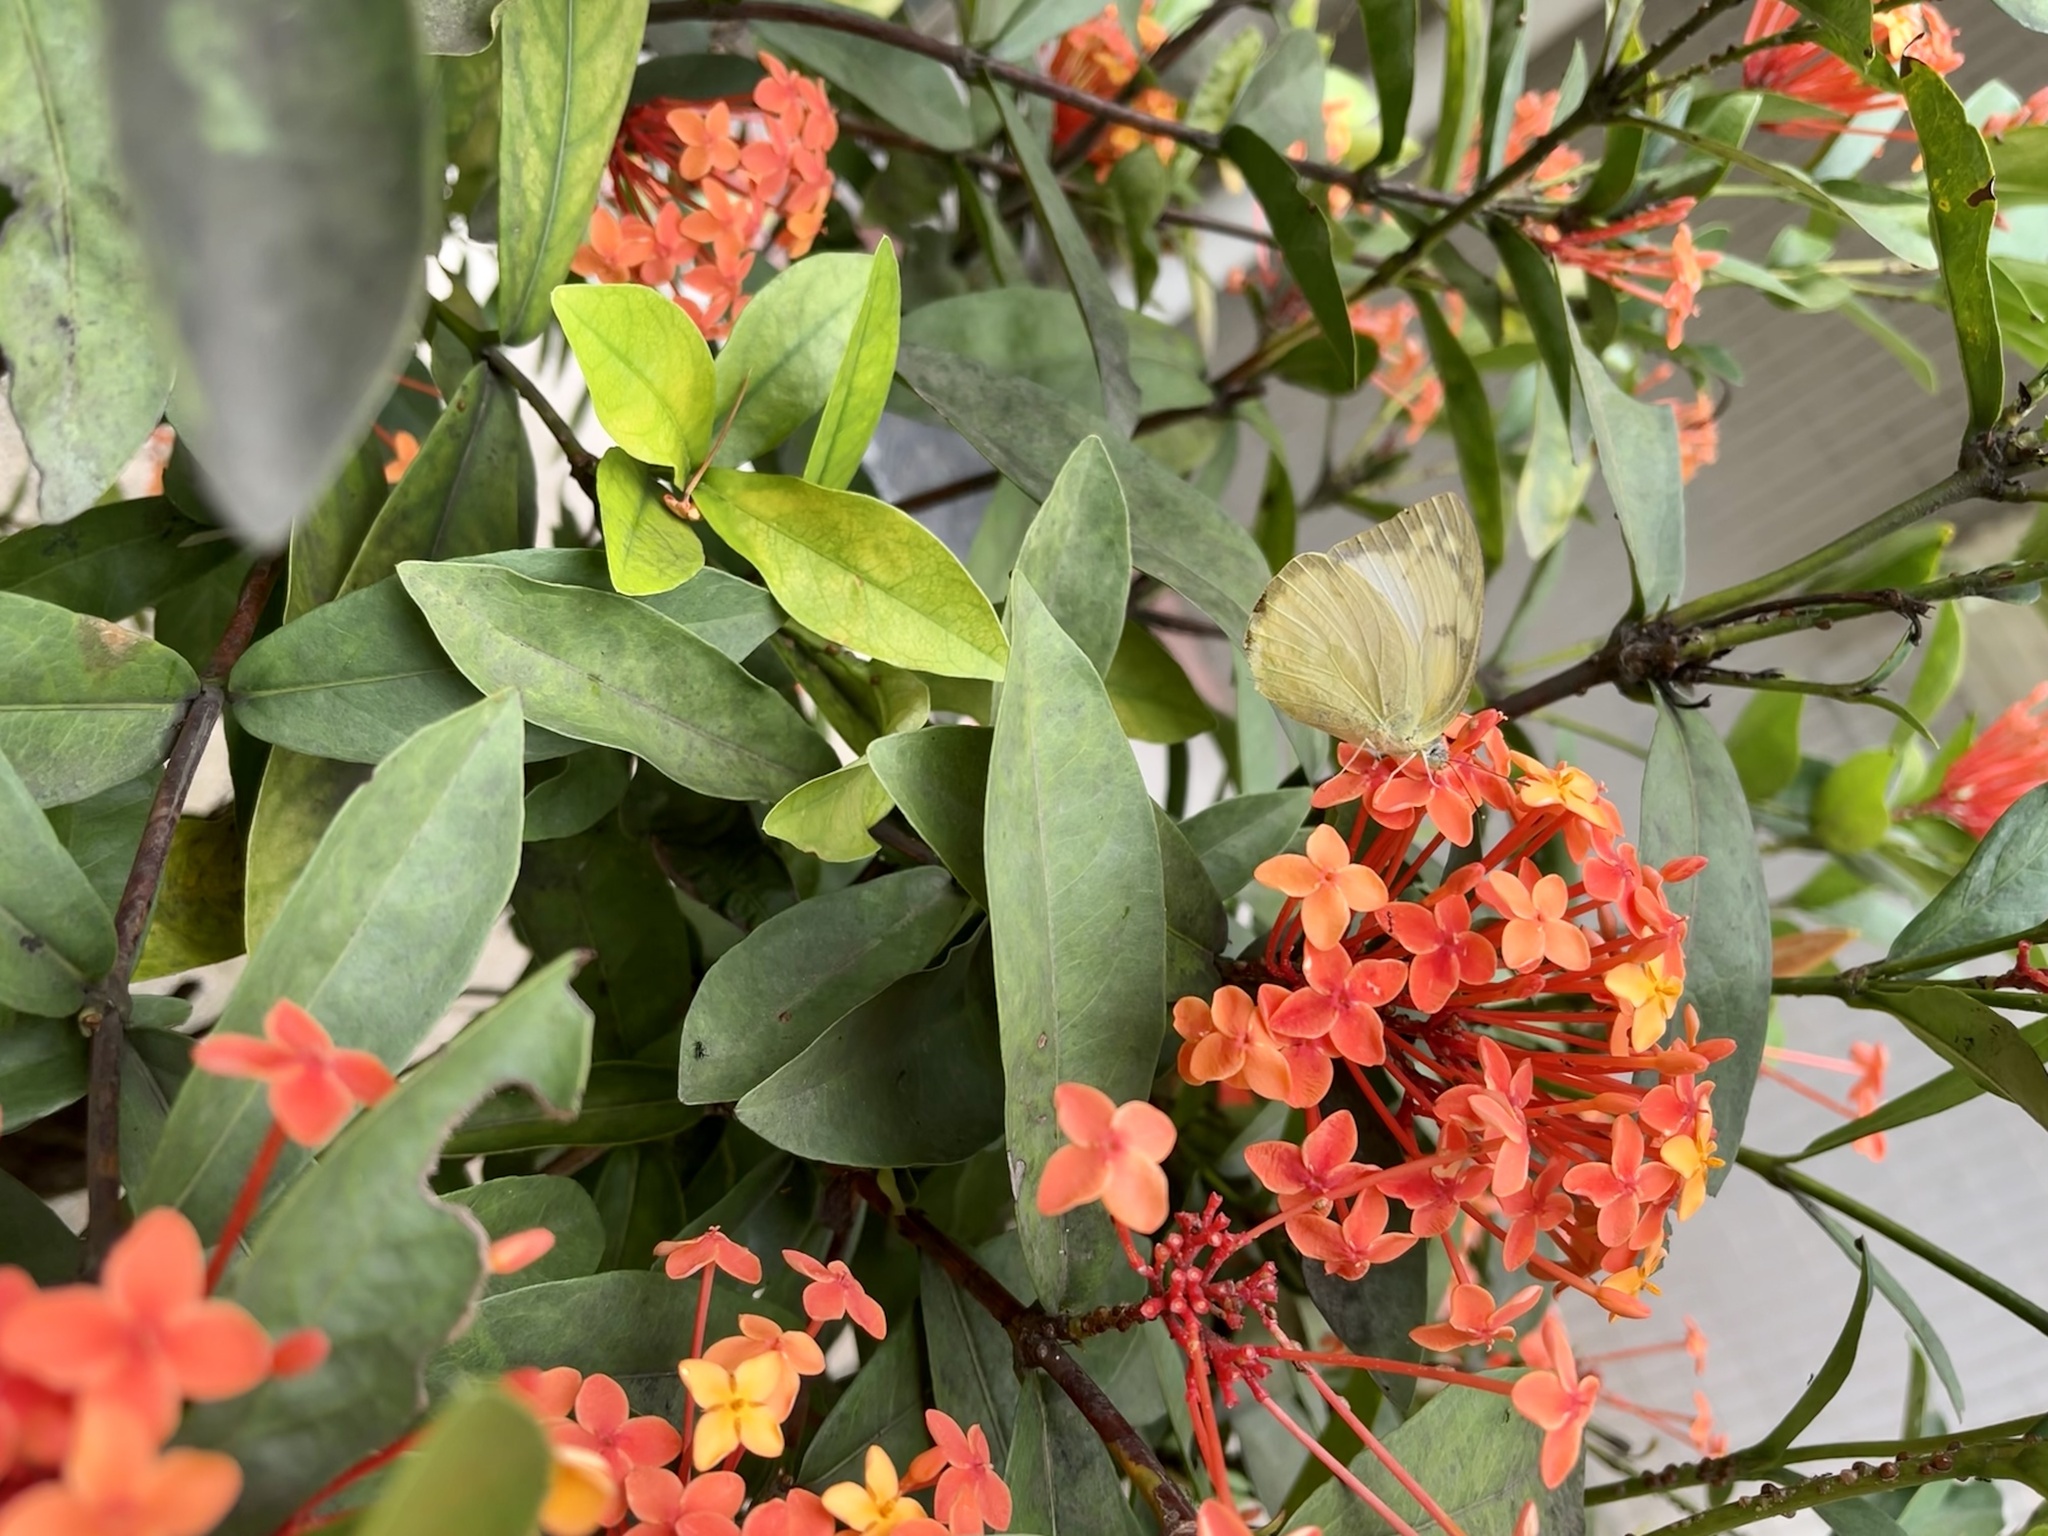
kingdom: Animalia
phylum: Arthropoda
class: Insecta
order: Lepidoptera
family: Pieridae
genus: Catopsilia
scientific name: Catopsilia pomona
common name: Common emigrant
